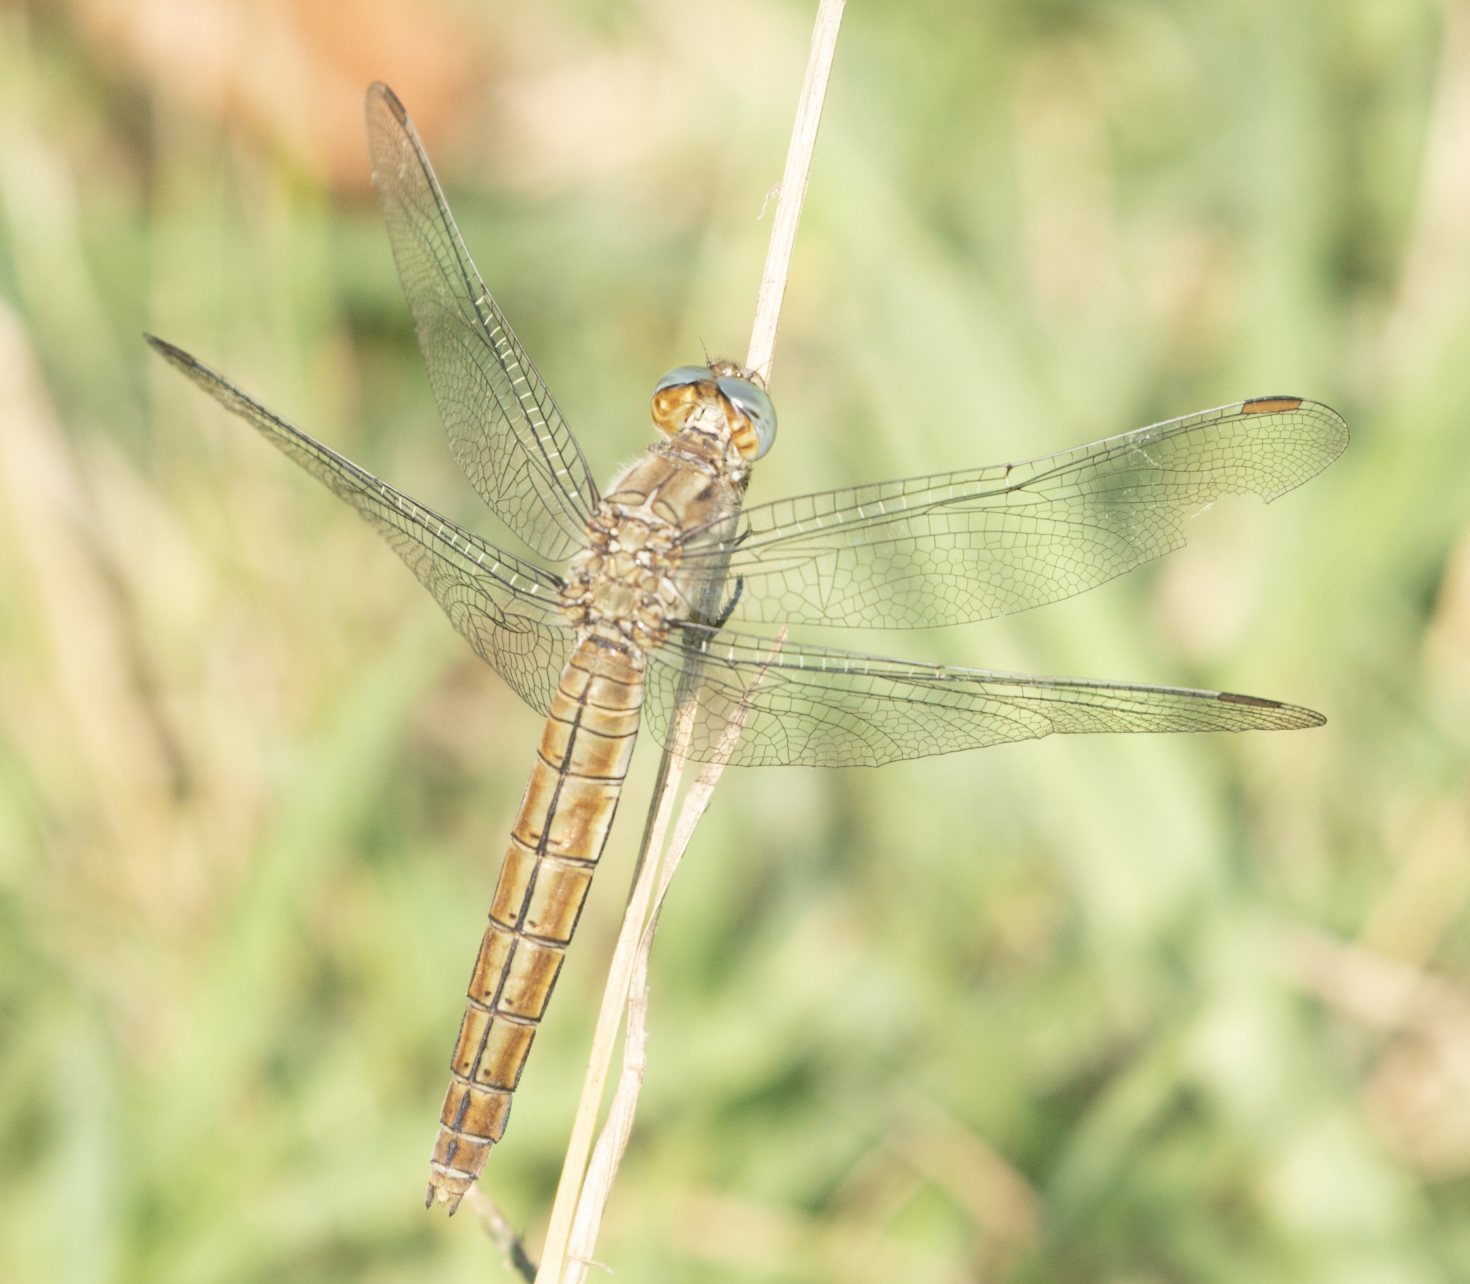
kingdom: Animalia
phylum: Arthropoda
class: Insecta
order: Odonata
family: Libellulidae
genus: Orthetrum
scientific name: Orthetrum brunneum
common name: Southern skimmer
